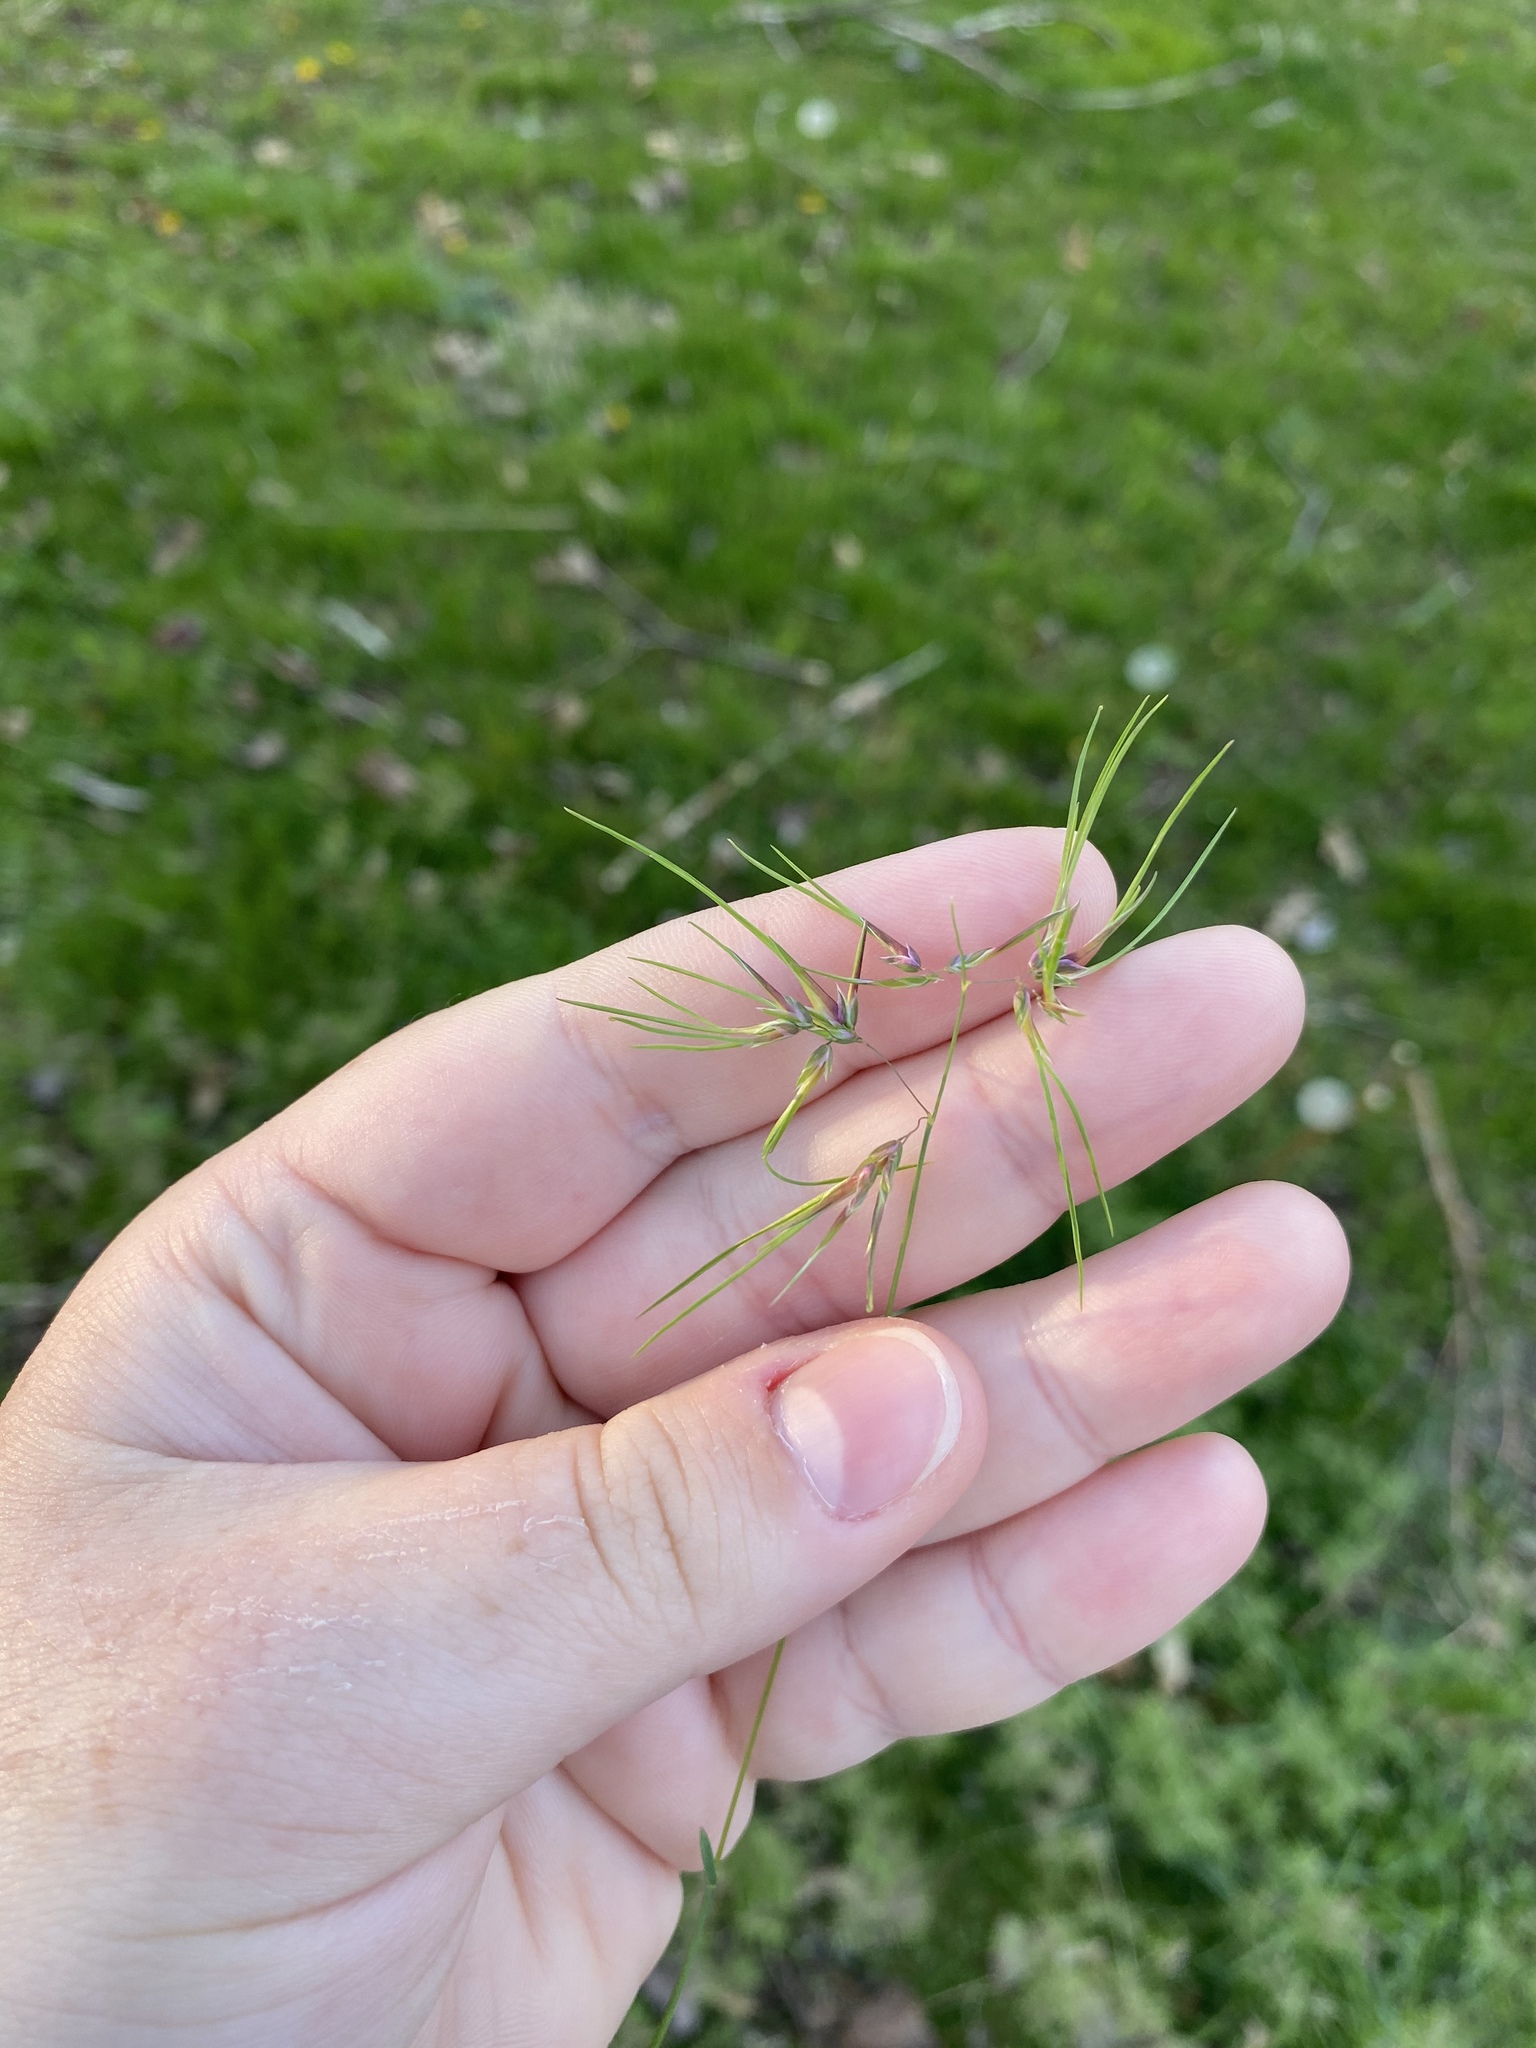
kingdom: Plantae
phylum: Tracheophyta
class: Liliopsida
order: Poales
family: Poaceae
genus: Poa
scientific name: Poa bulbosa
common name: Bulbous bluegrass
